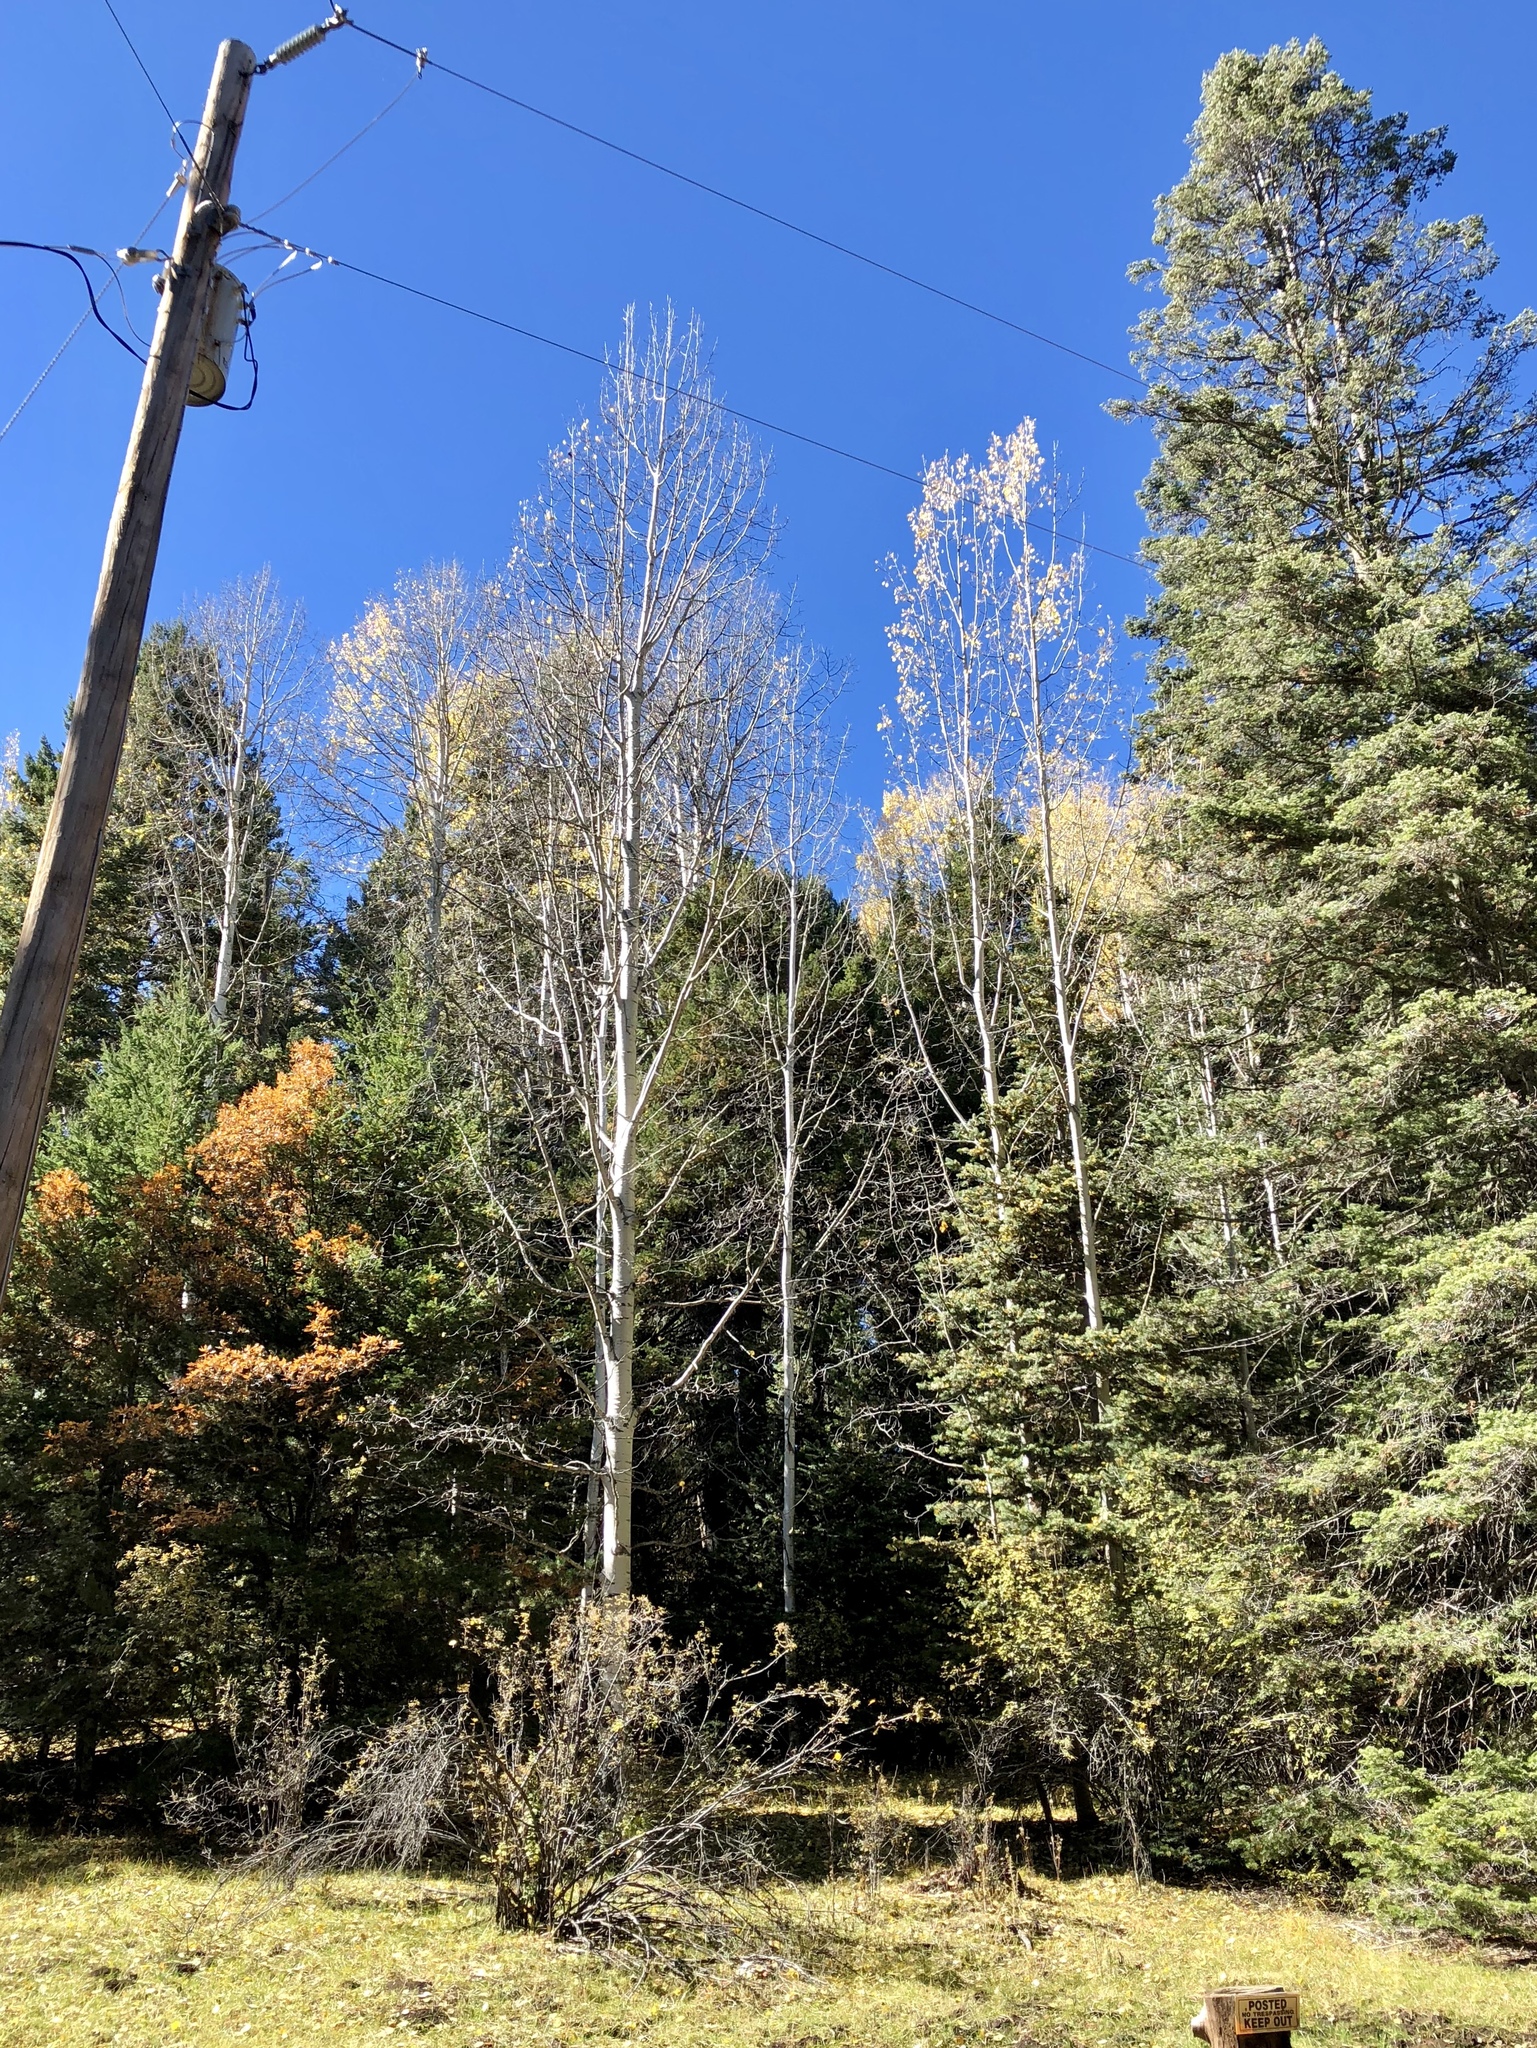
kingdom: Plantae
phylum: Tracheophyta
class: Magnoliopsida
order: Malpighiales
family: Salicaceae
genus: Populus
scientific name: Populus tremuloides
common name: Quaking aspen
